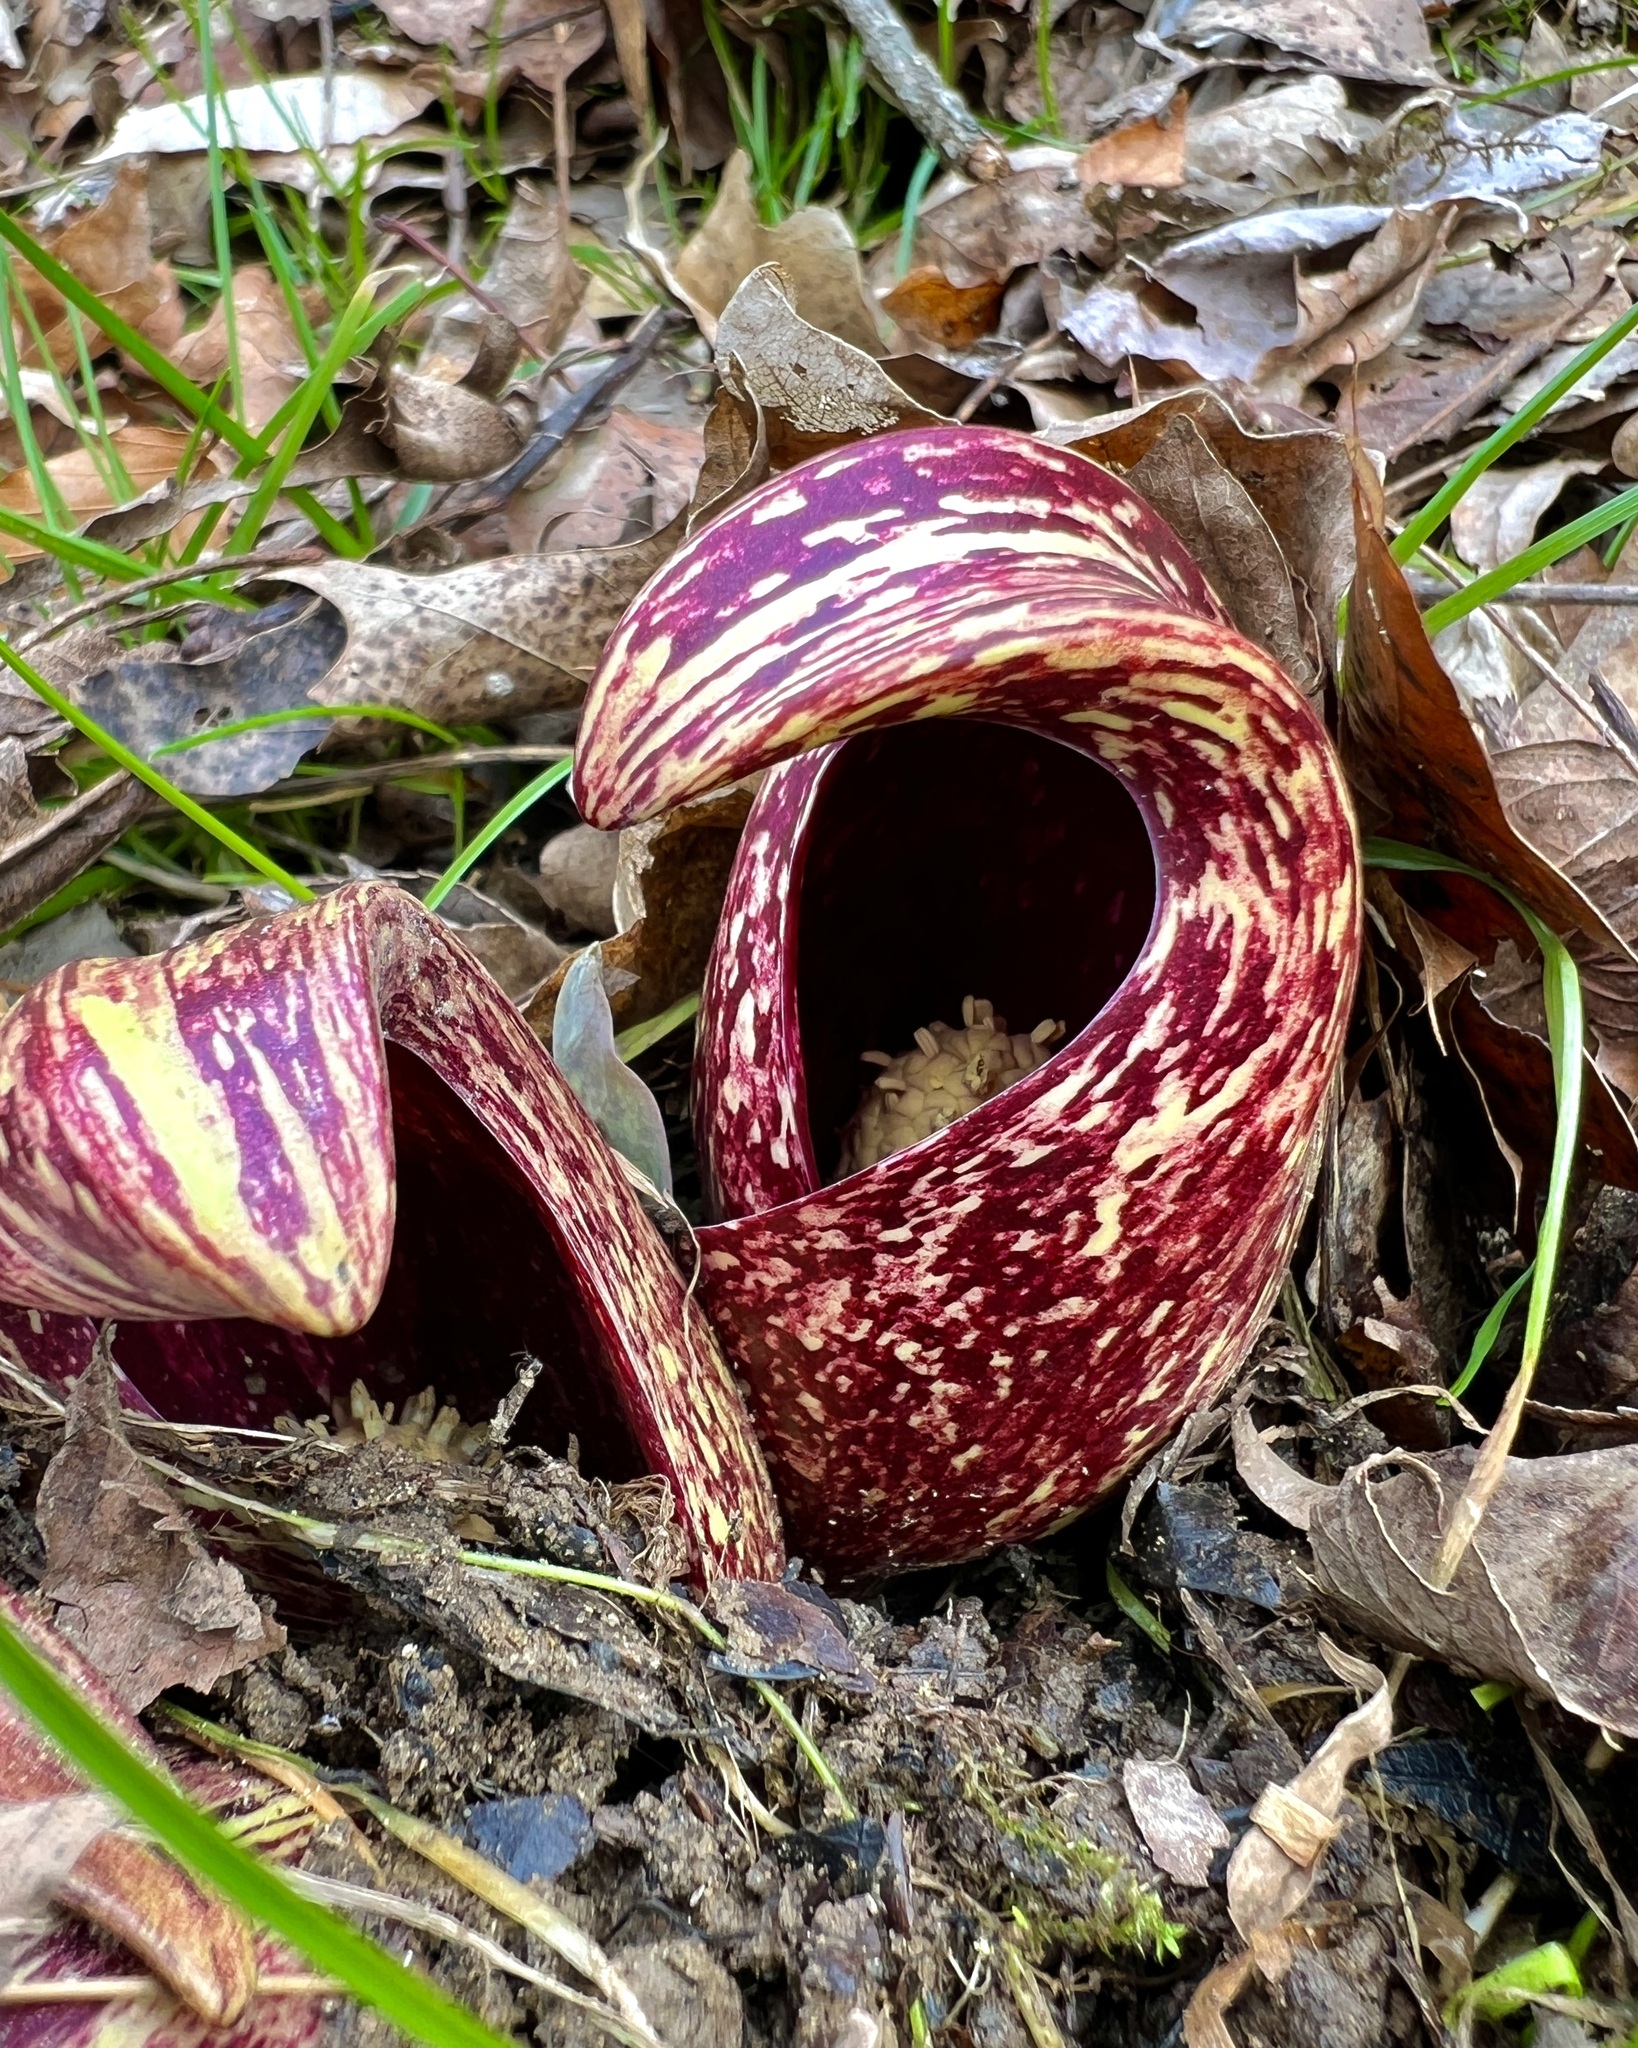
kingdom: Plantae
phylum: Tracheophyta
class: Liliopsida
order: Alismatales
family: Araceae
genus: Symplocarpus
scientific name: Symplocarpus foetidus
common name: Eastern skunk cabbage
